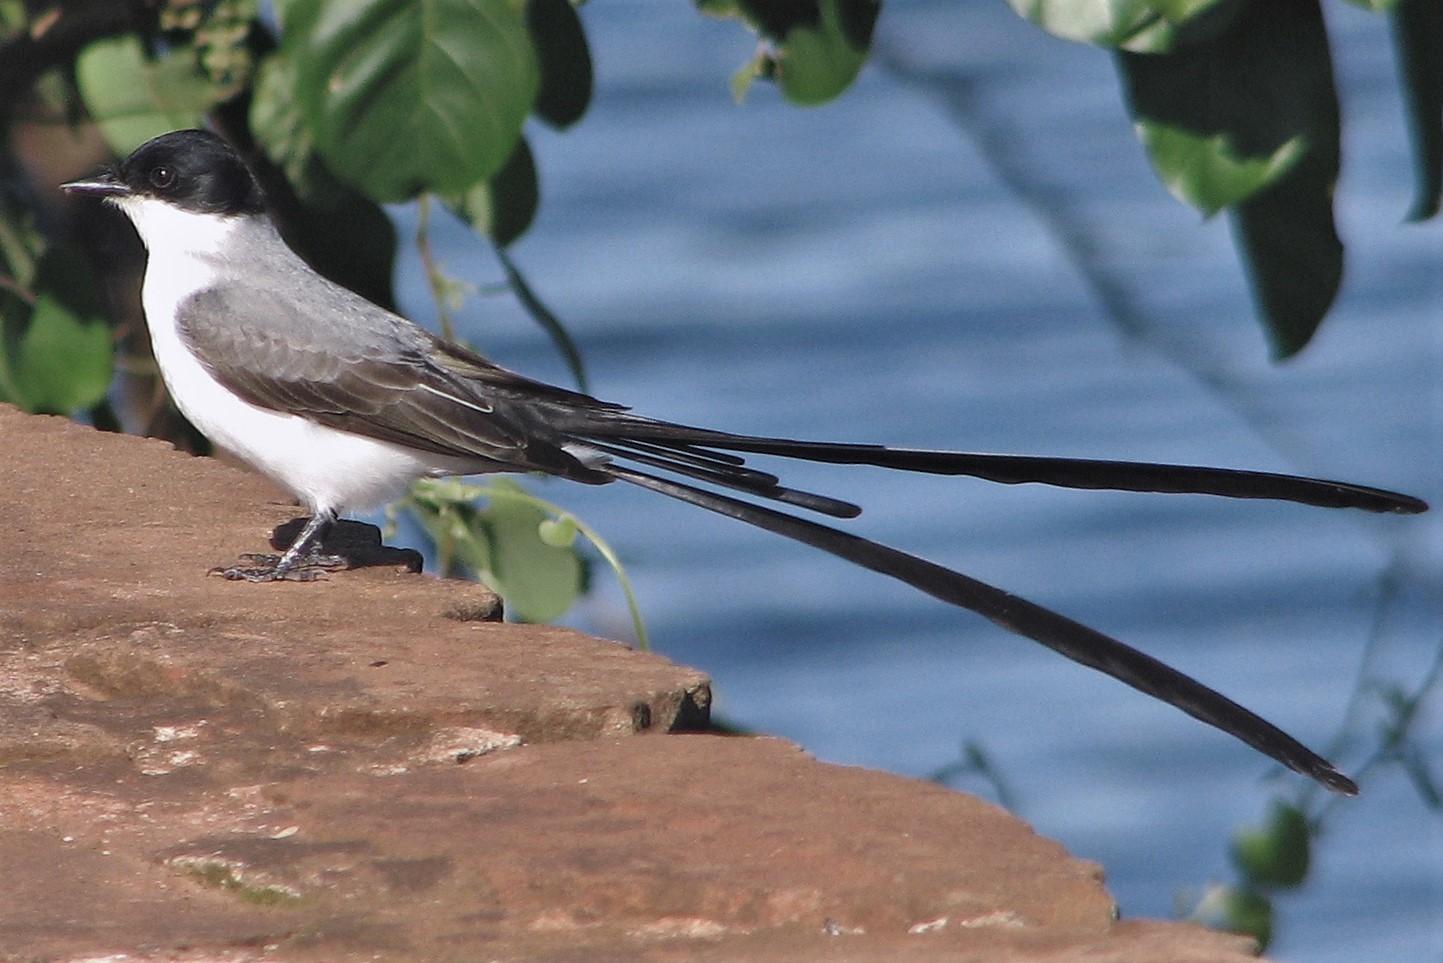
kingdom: Animalia
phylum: Chordata
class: Aves
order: Passeriformes
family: Tyrannidae
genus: Tyrannus
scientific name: Tyrannus savana
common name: Fork-tailed flycatcher
